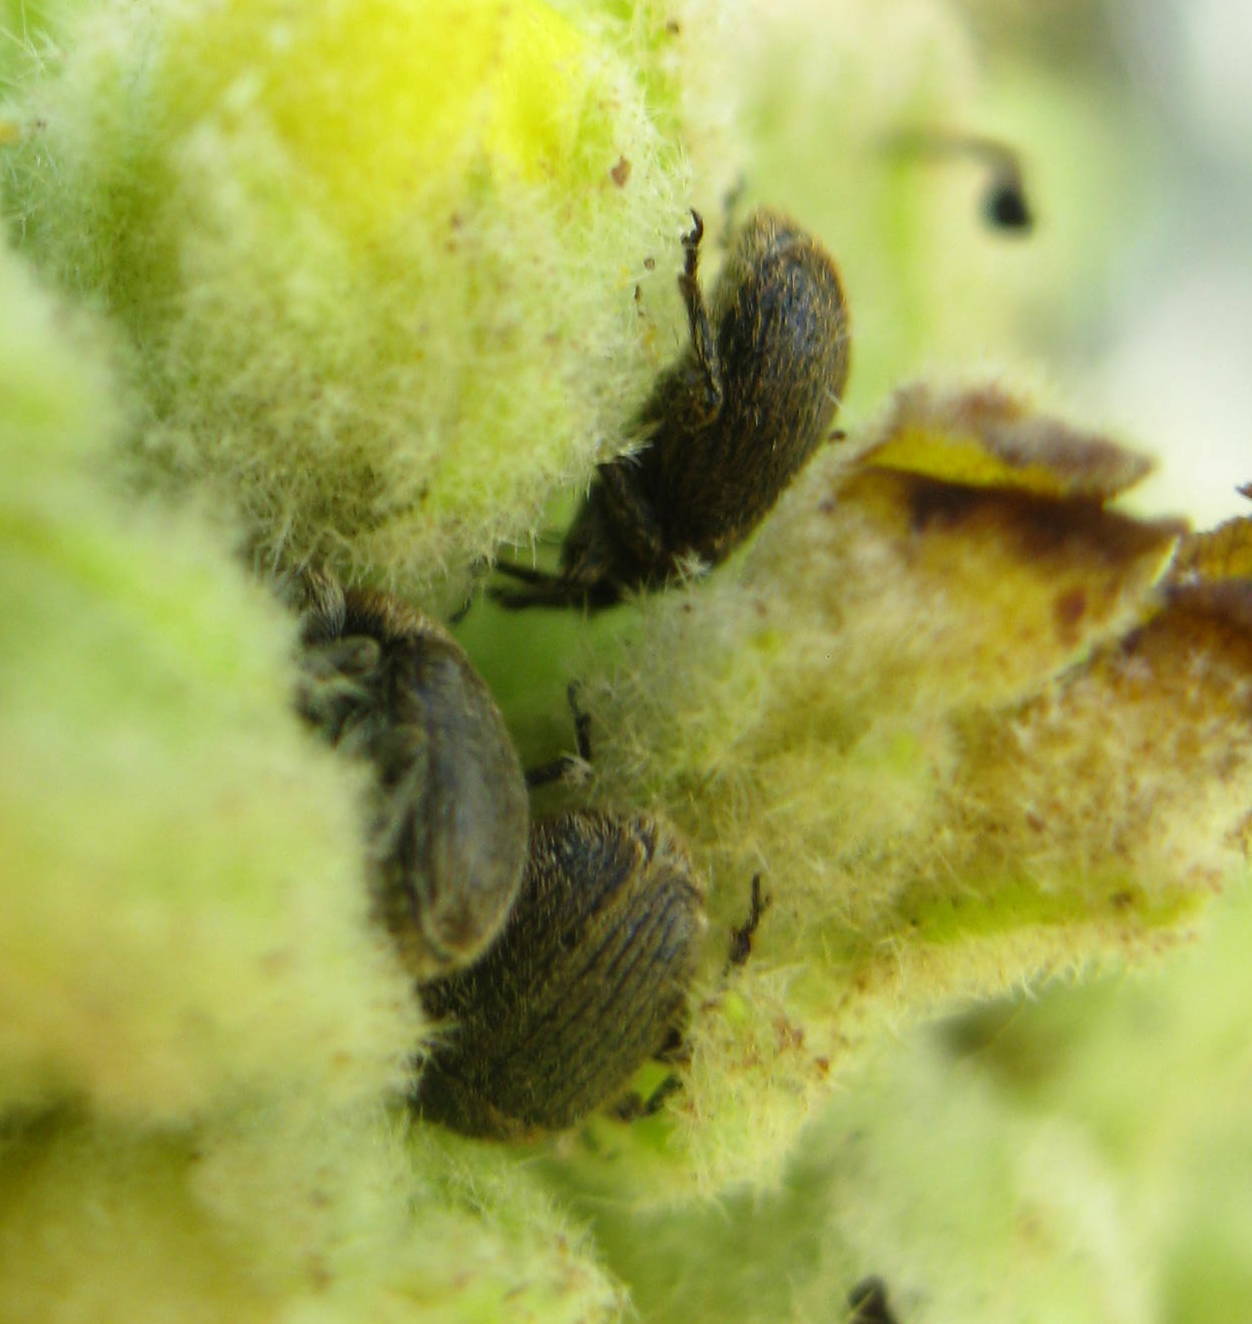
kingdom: Animalia
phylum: Arthropoda
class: Insecta
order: Coleoptera
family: Curculionidae
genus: Rhinusa
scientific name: Rhinusa tetra
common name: Weevil
